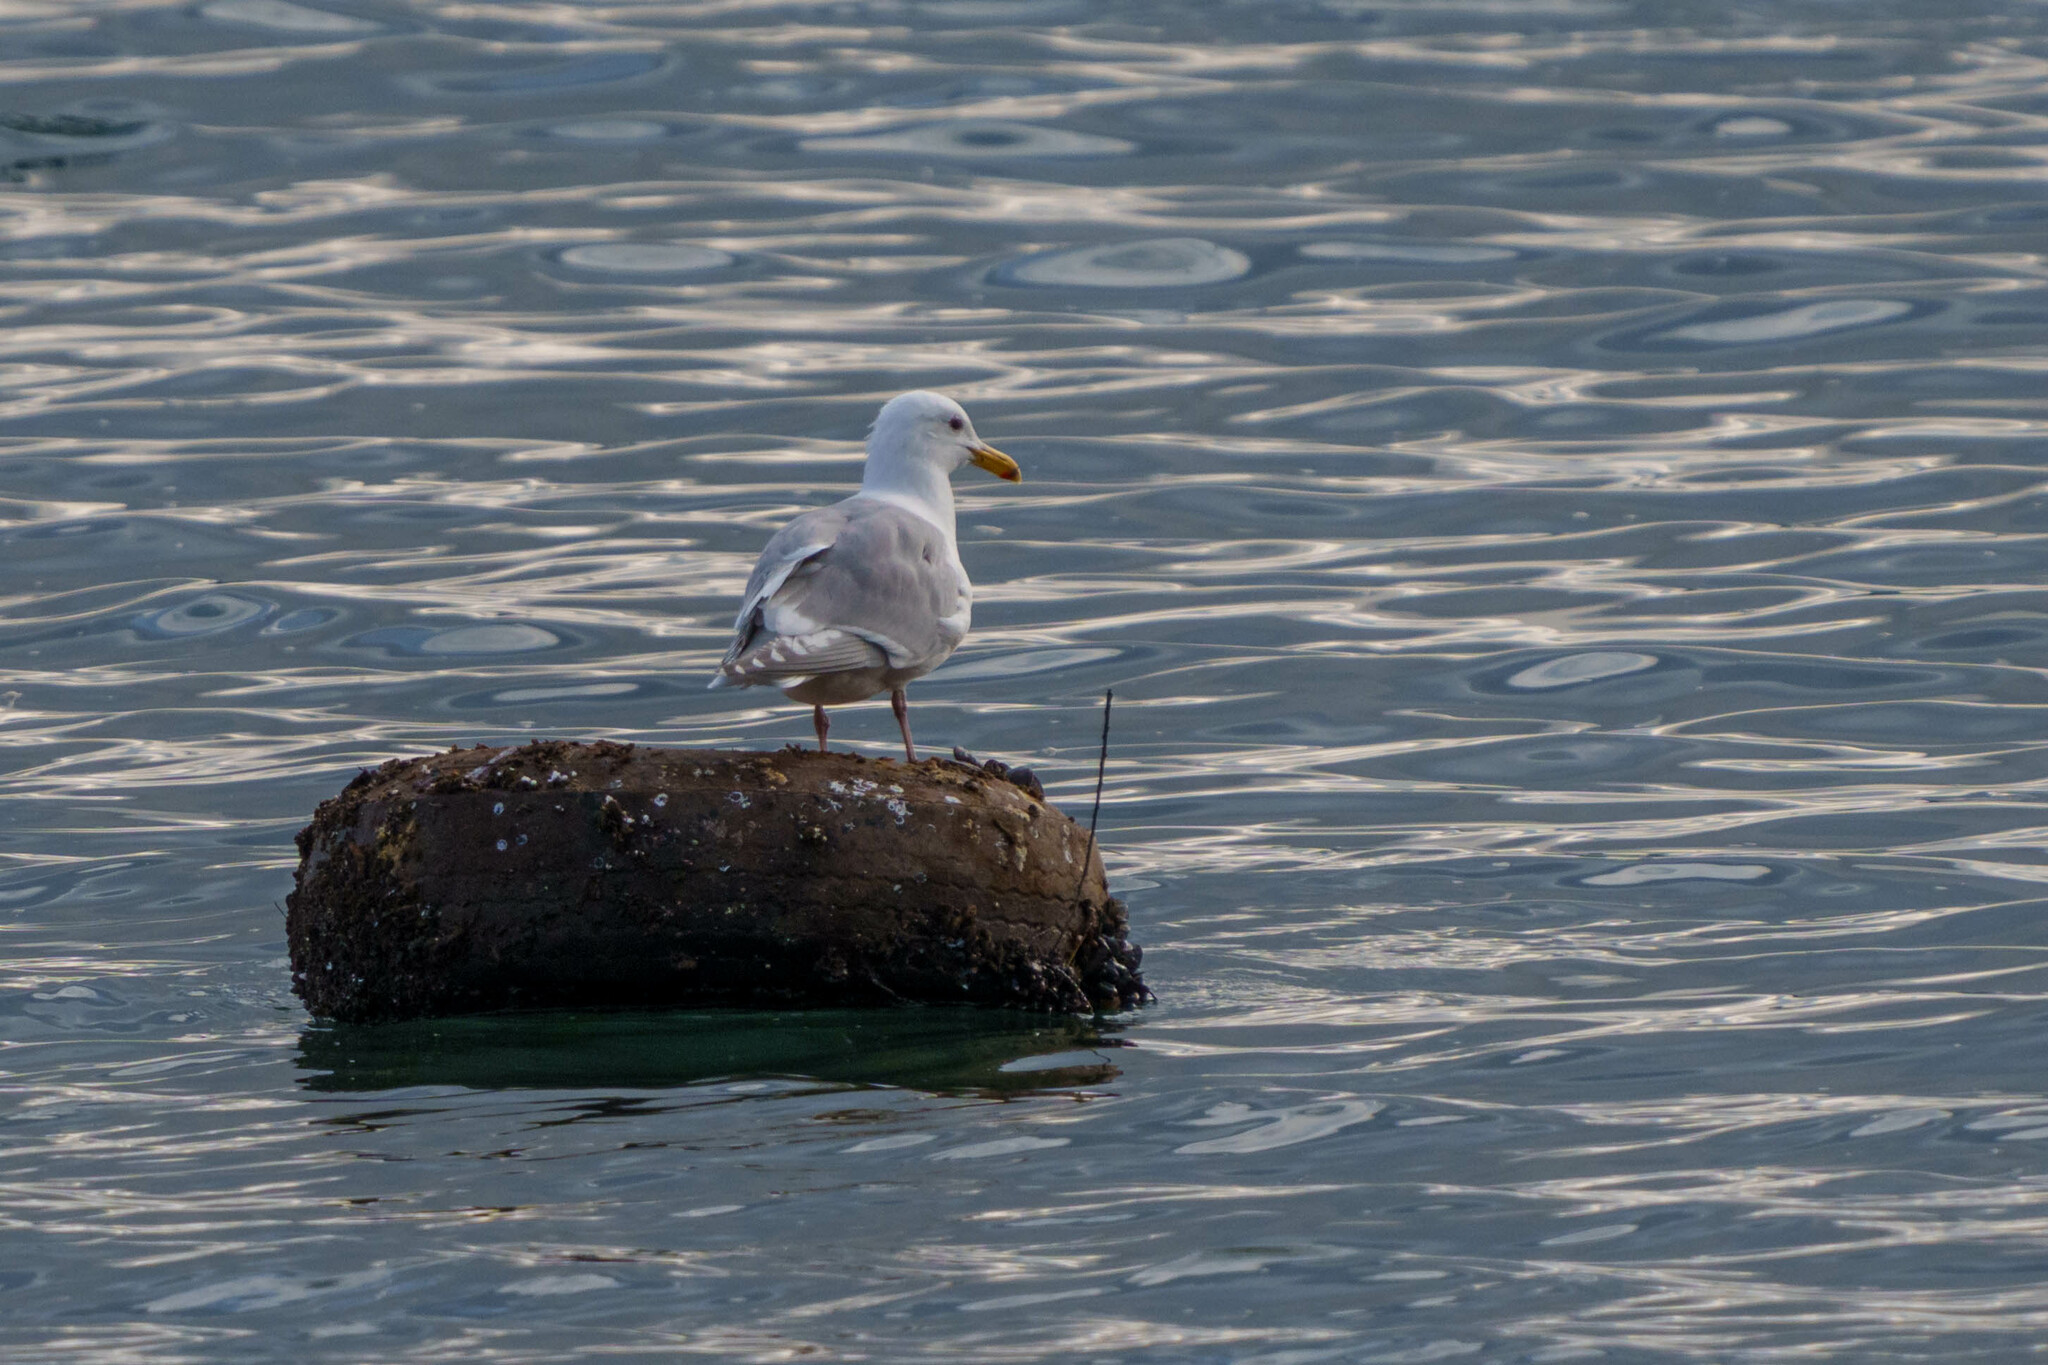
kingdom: Animalia
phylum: Chordata
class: Aves
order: Charadriiformes
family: Laridae
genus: Larus
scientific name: Larus glaucescens
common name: Glaucous-winged gull
